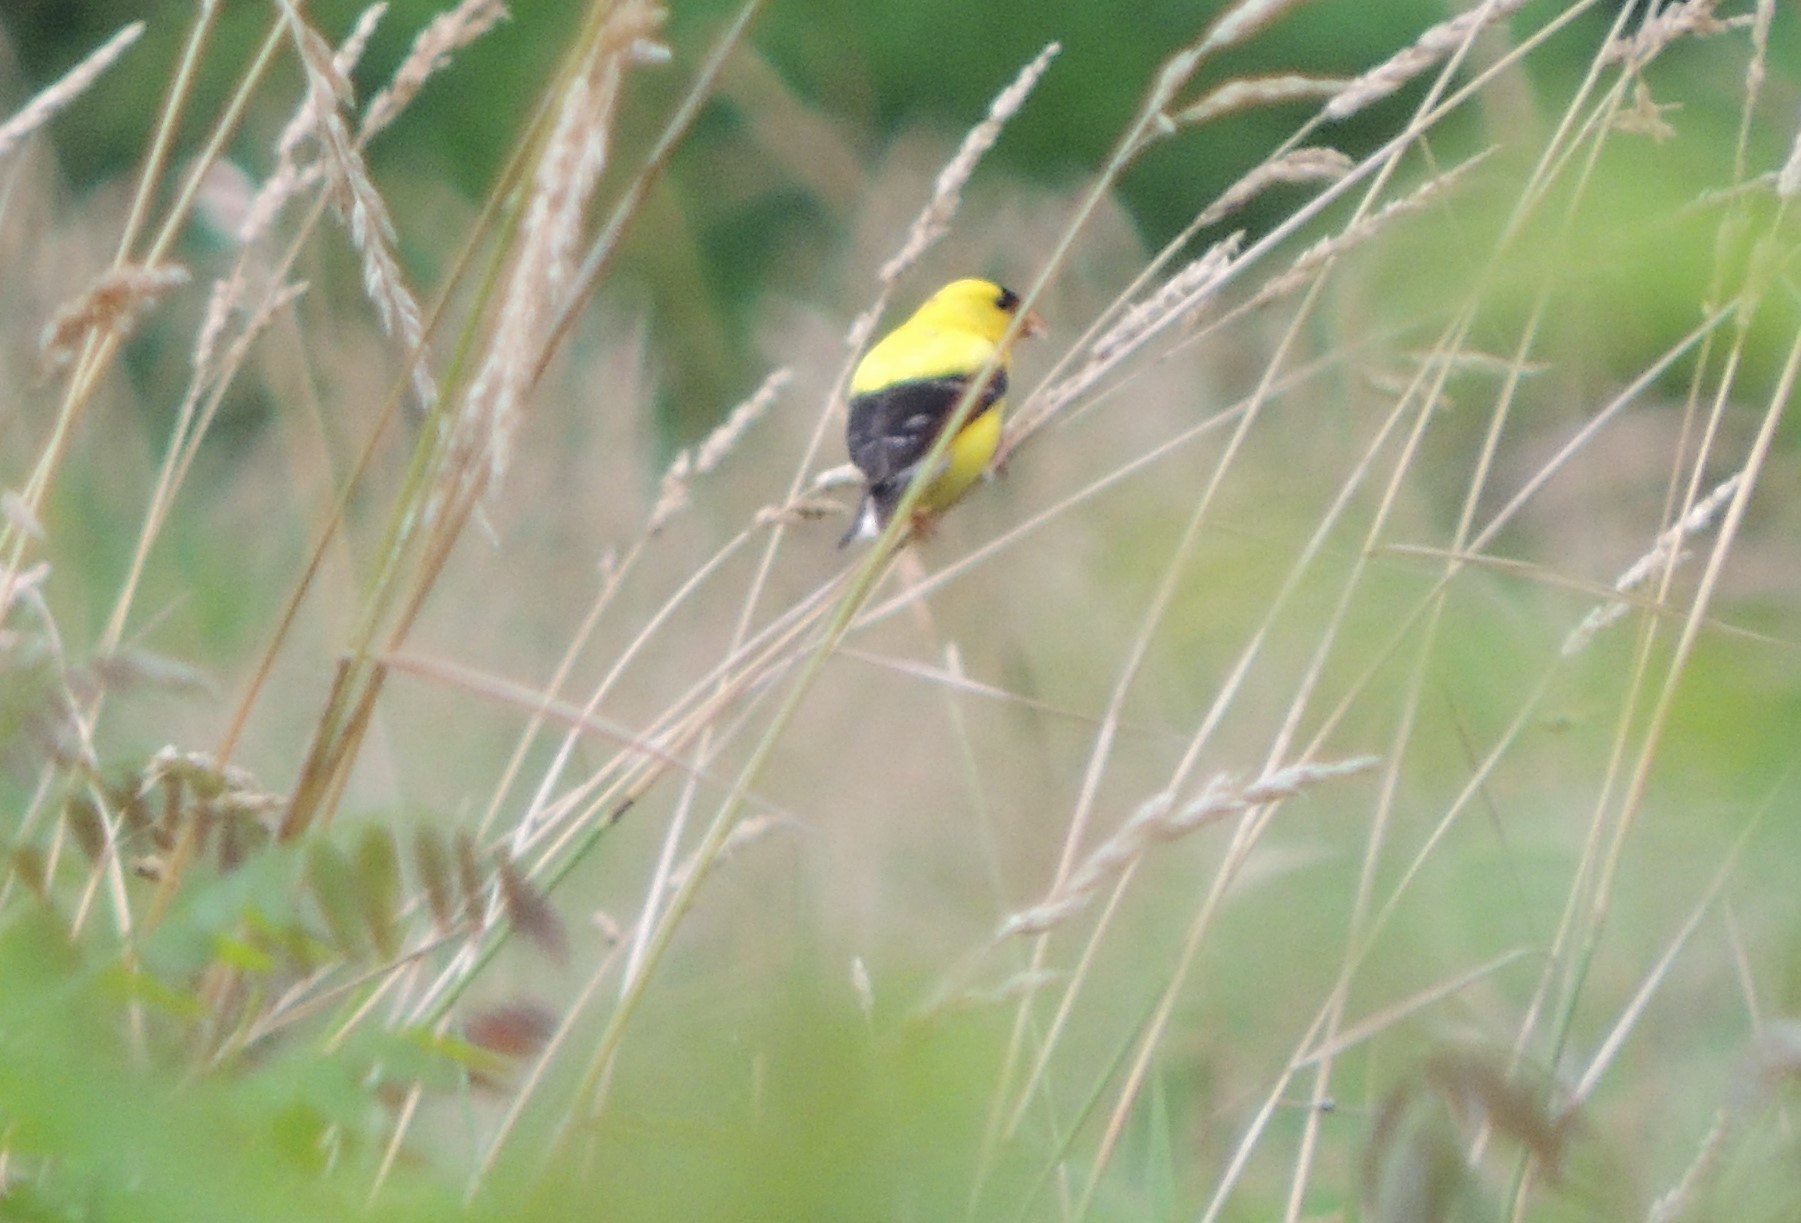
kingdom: Animalia
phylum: Chordata
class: Aves
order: Passeriformes
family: Fringillidae
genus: Spinus
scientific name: Spinus tristis
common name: American goldfinch
